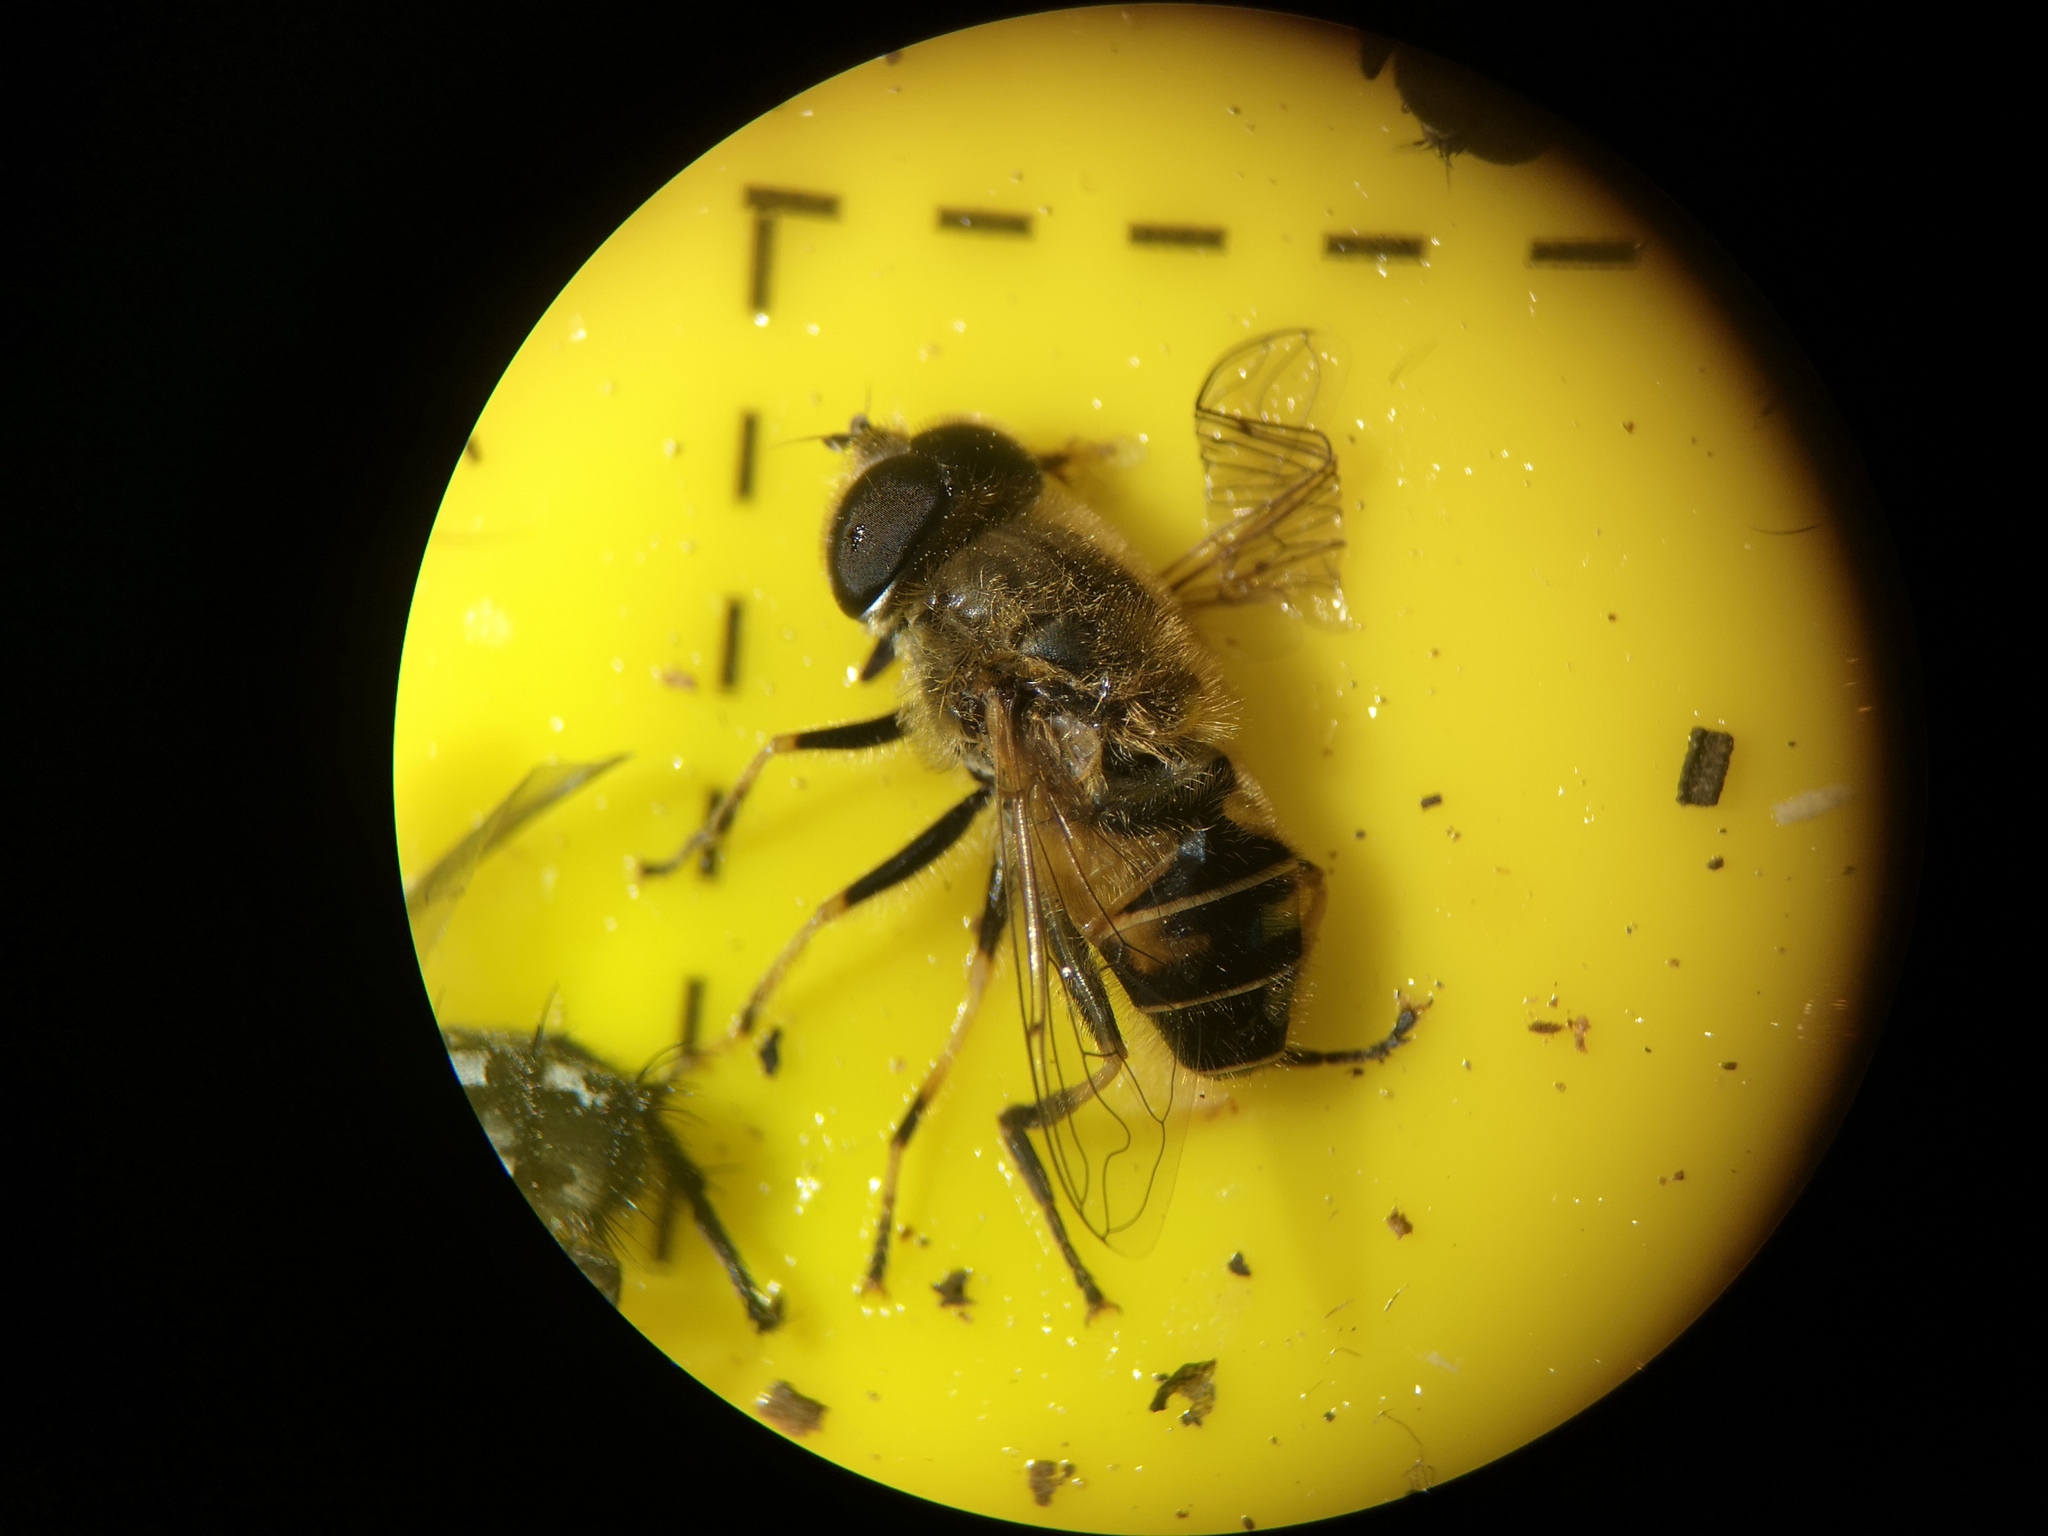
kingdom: Animalia
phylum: Arthropoda
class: Insecta
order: Diptera
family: Syrphidae
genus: Eristalis
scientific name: Eristalis nemorum
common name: Orange-spined drone fly
